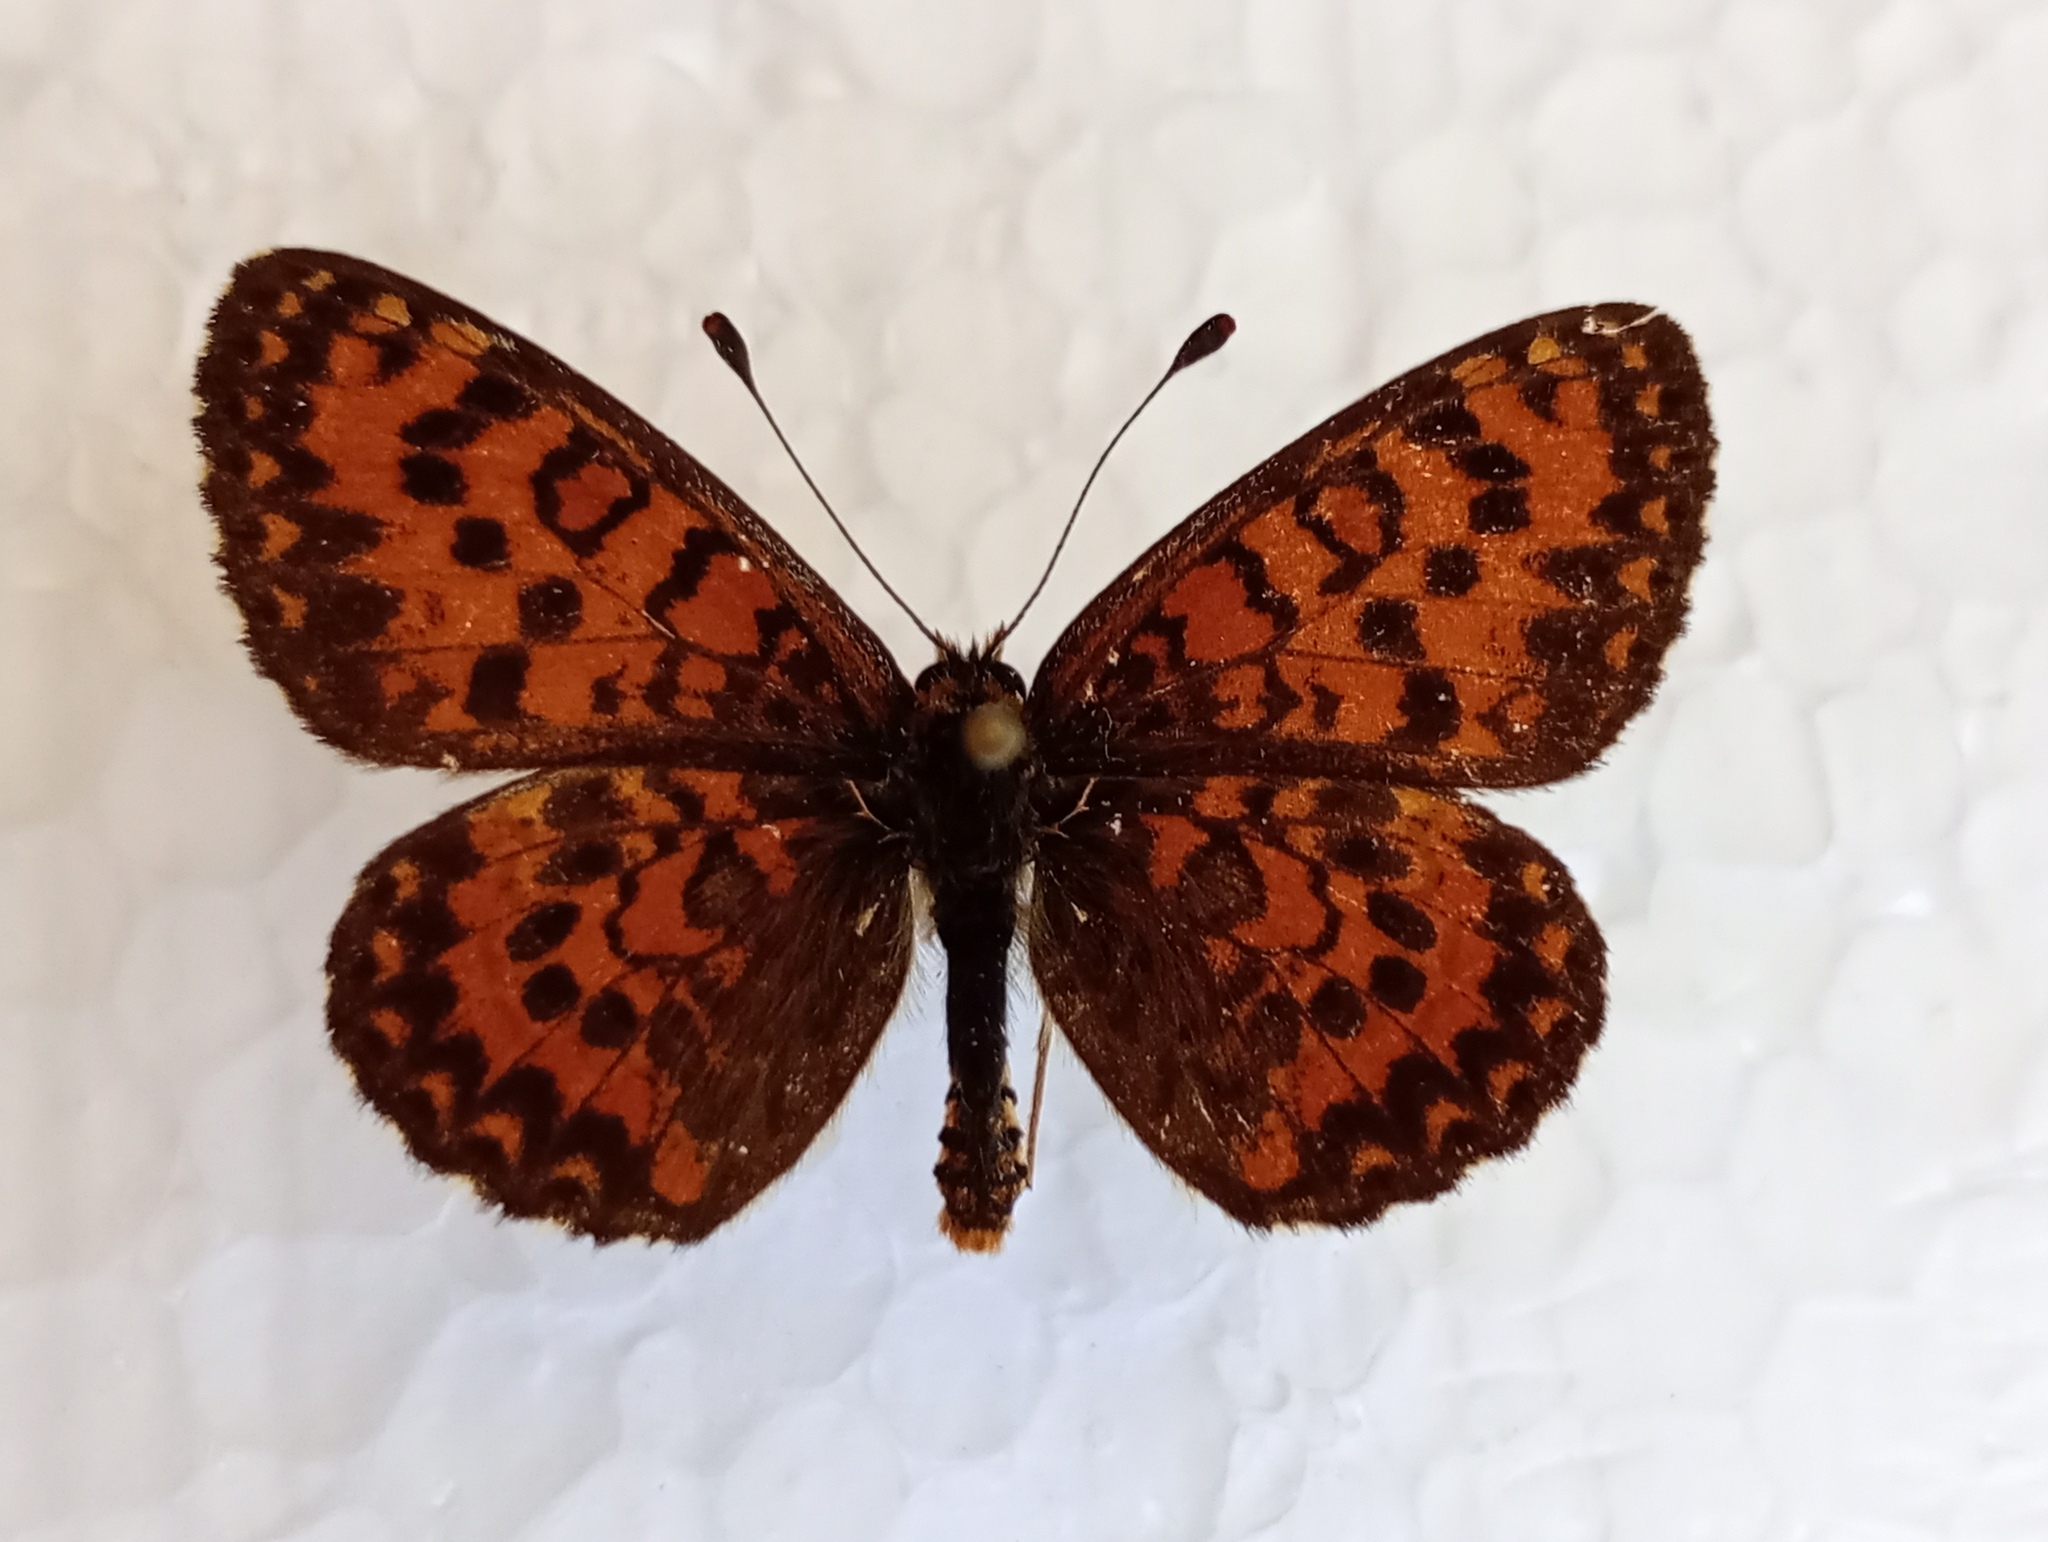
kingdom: Animalia
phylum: Arthropoda
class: Insecta
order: Lepidoptera
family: Nymphalidae
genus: Melitaea
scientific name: Melitaea trivia
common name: Lesser spotted fritillary
